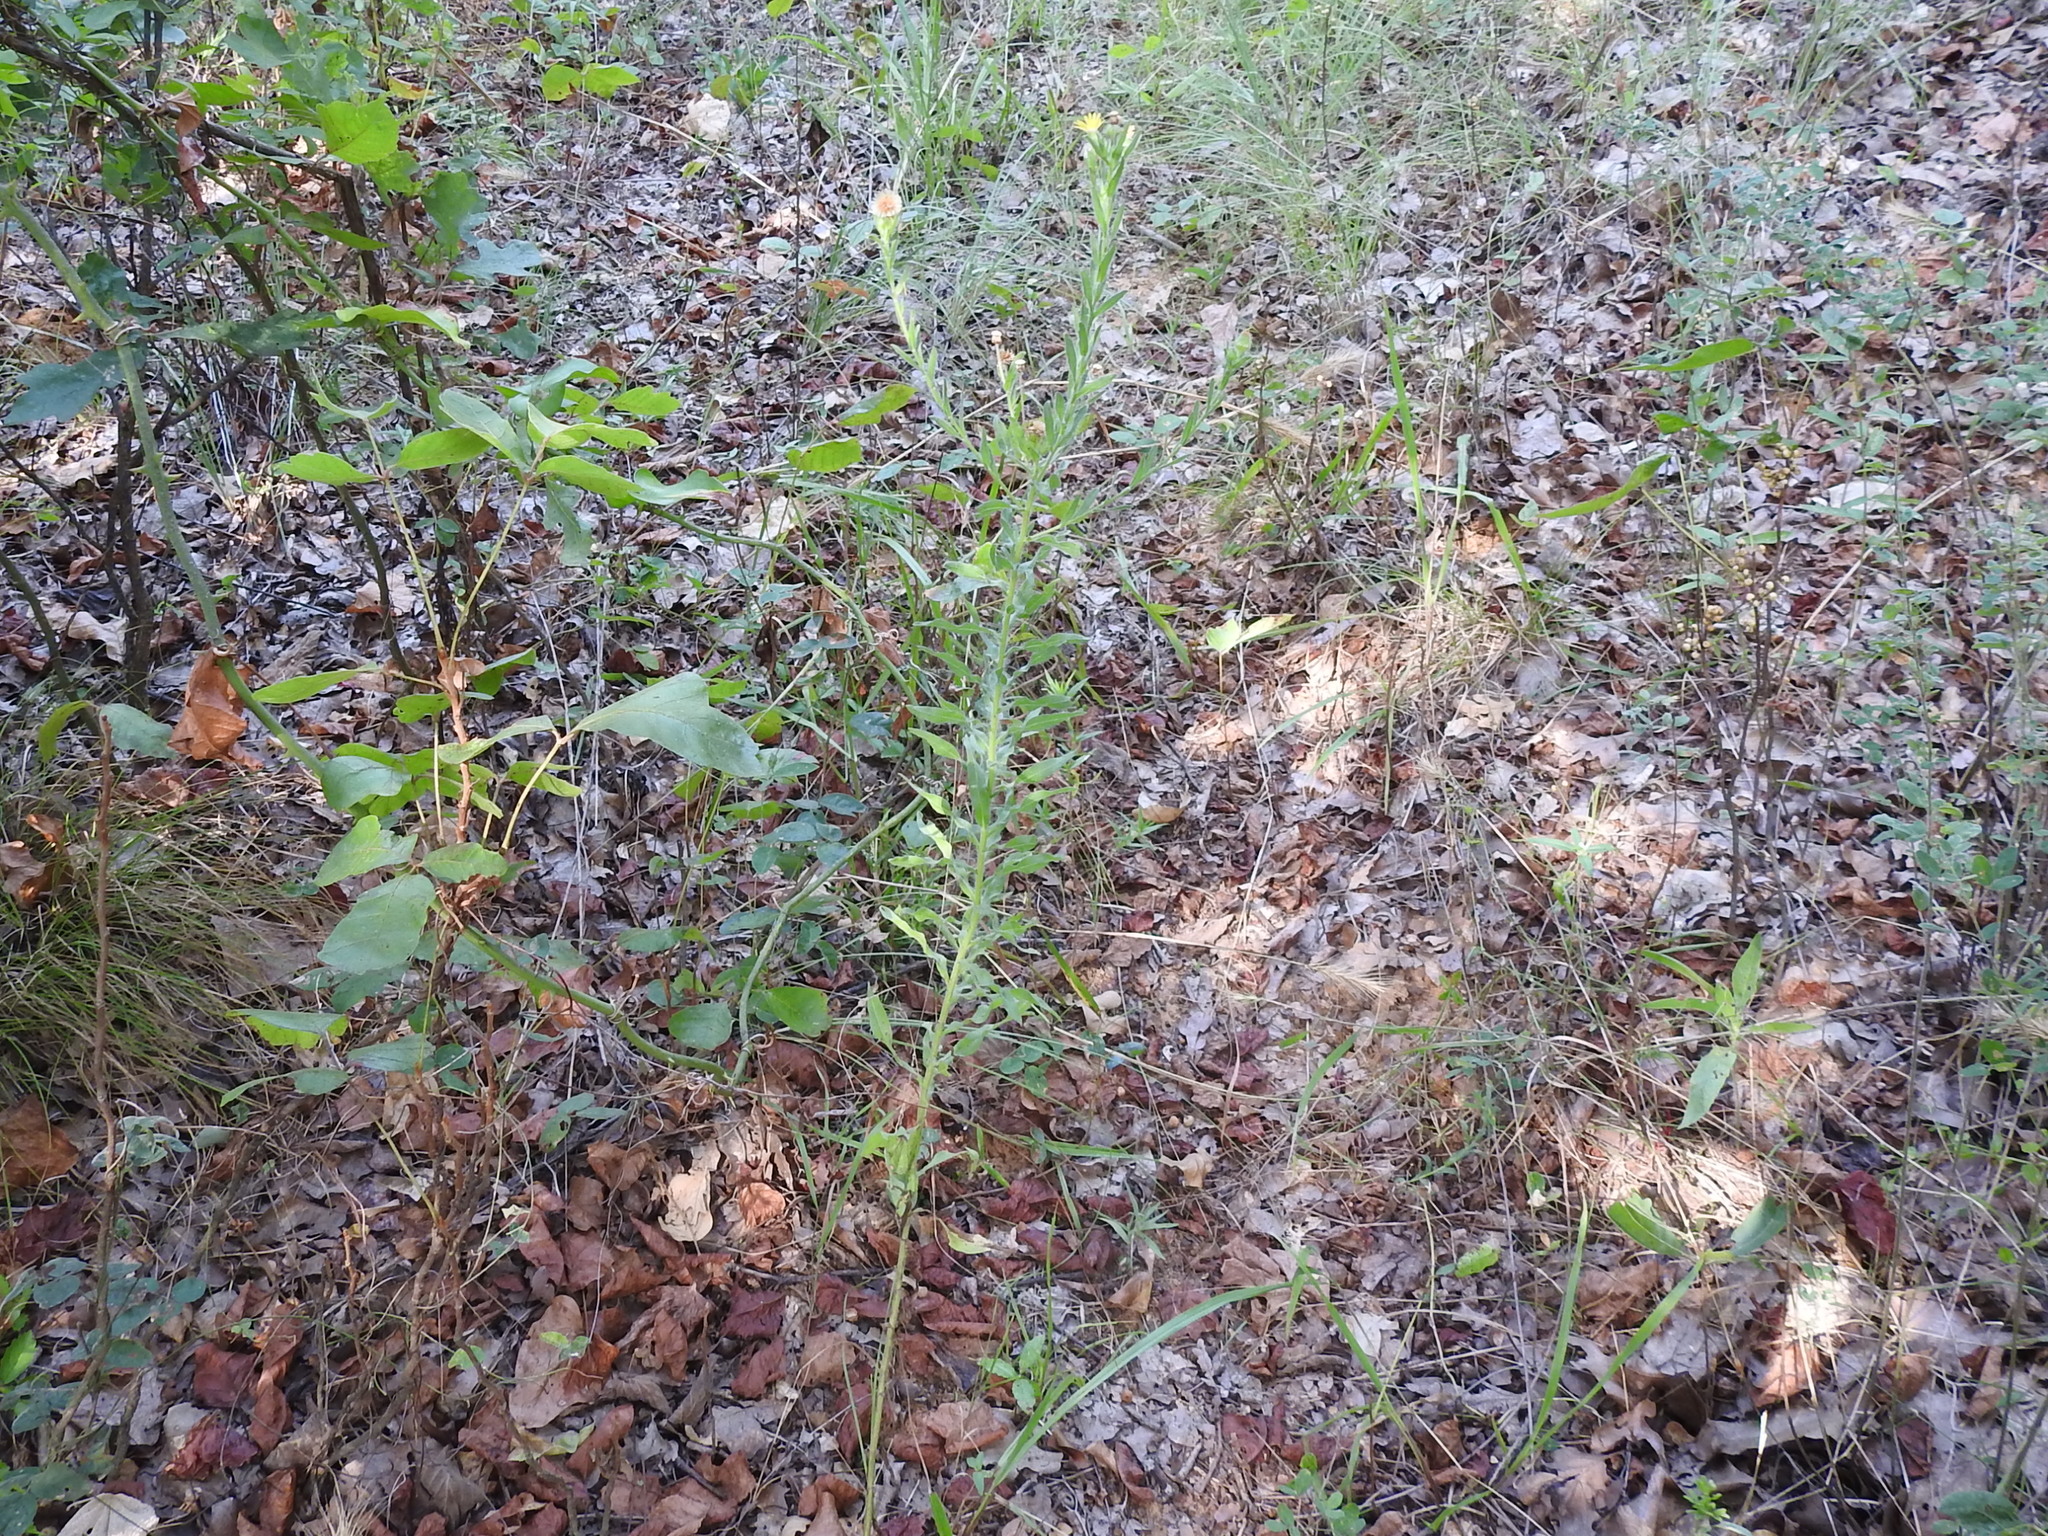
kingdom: Plantae
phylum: Tracheophyta
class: Magnoliopsida
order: Asterales
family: Asteraceae
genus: Bradburia
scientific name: Bradburia pilosa
